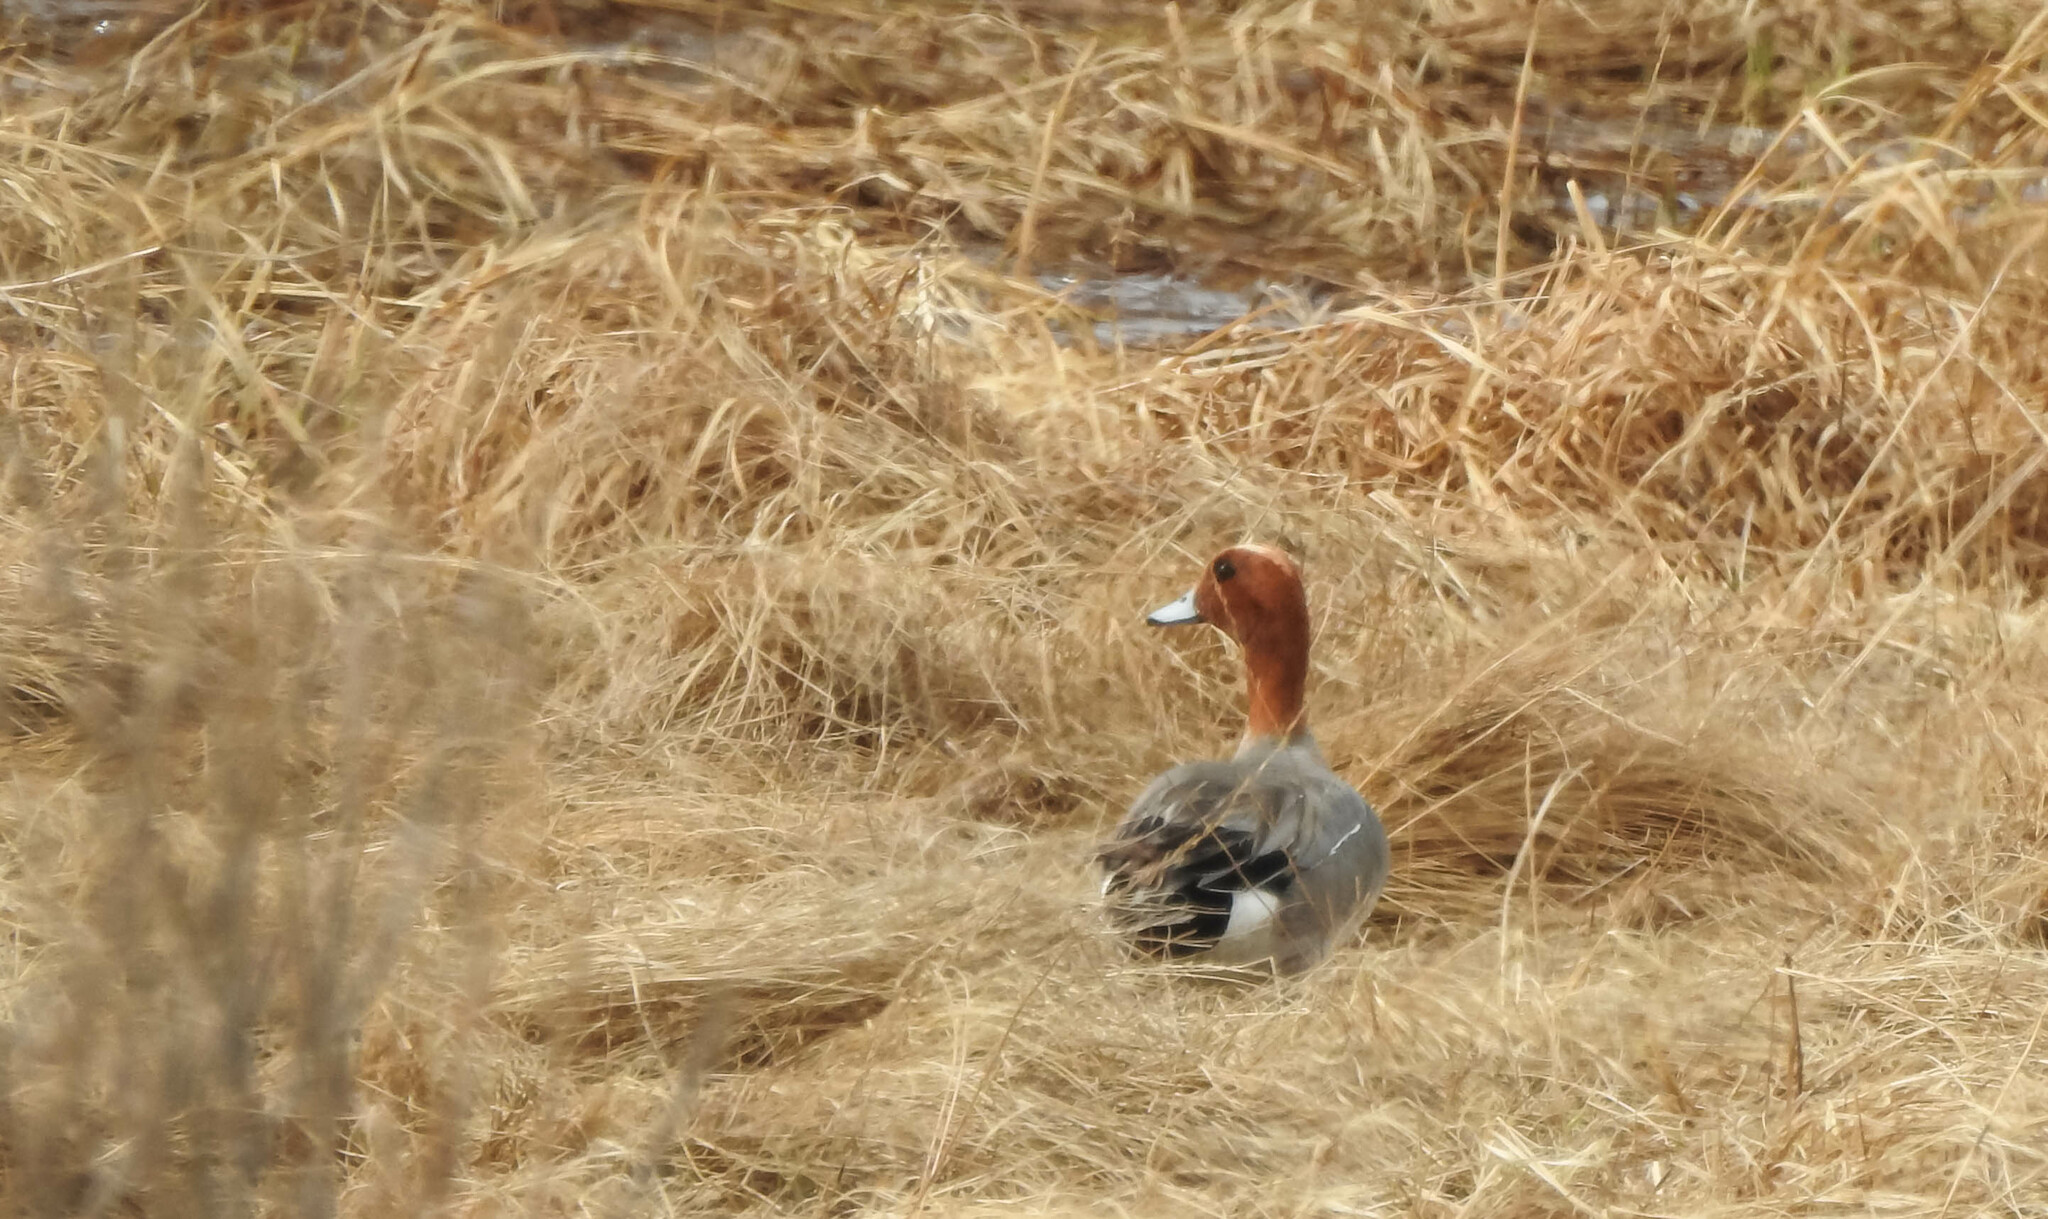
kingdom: Animalia
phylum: Chordata
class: Aves
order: Anseriformes
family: Anatidae
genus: Mareca
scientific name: Mareca penelope
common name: Eurasian wigeon
